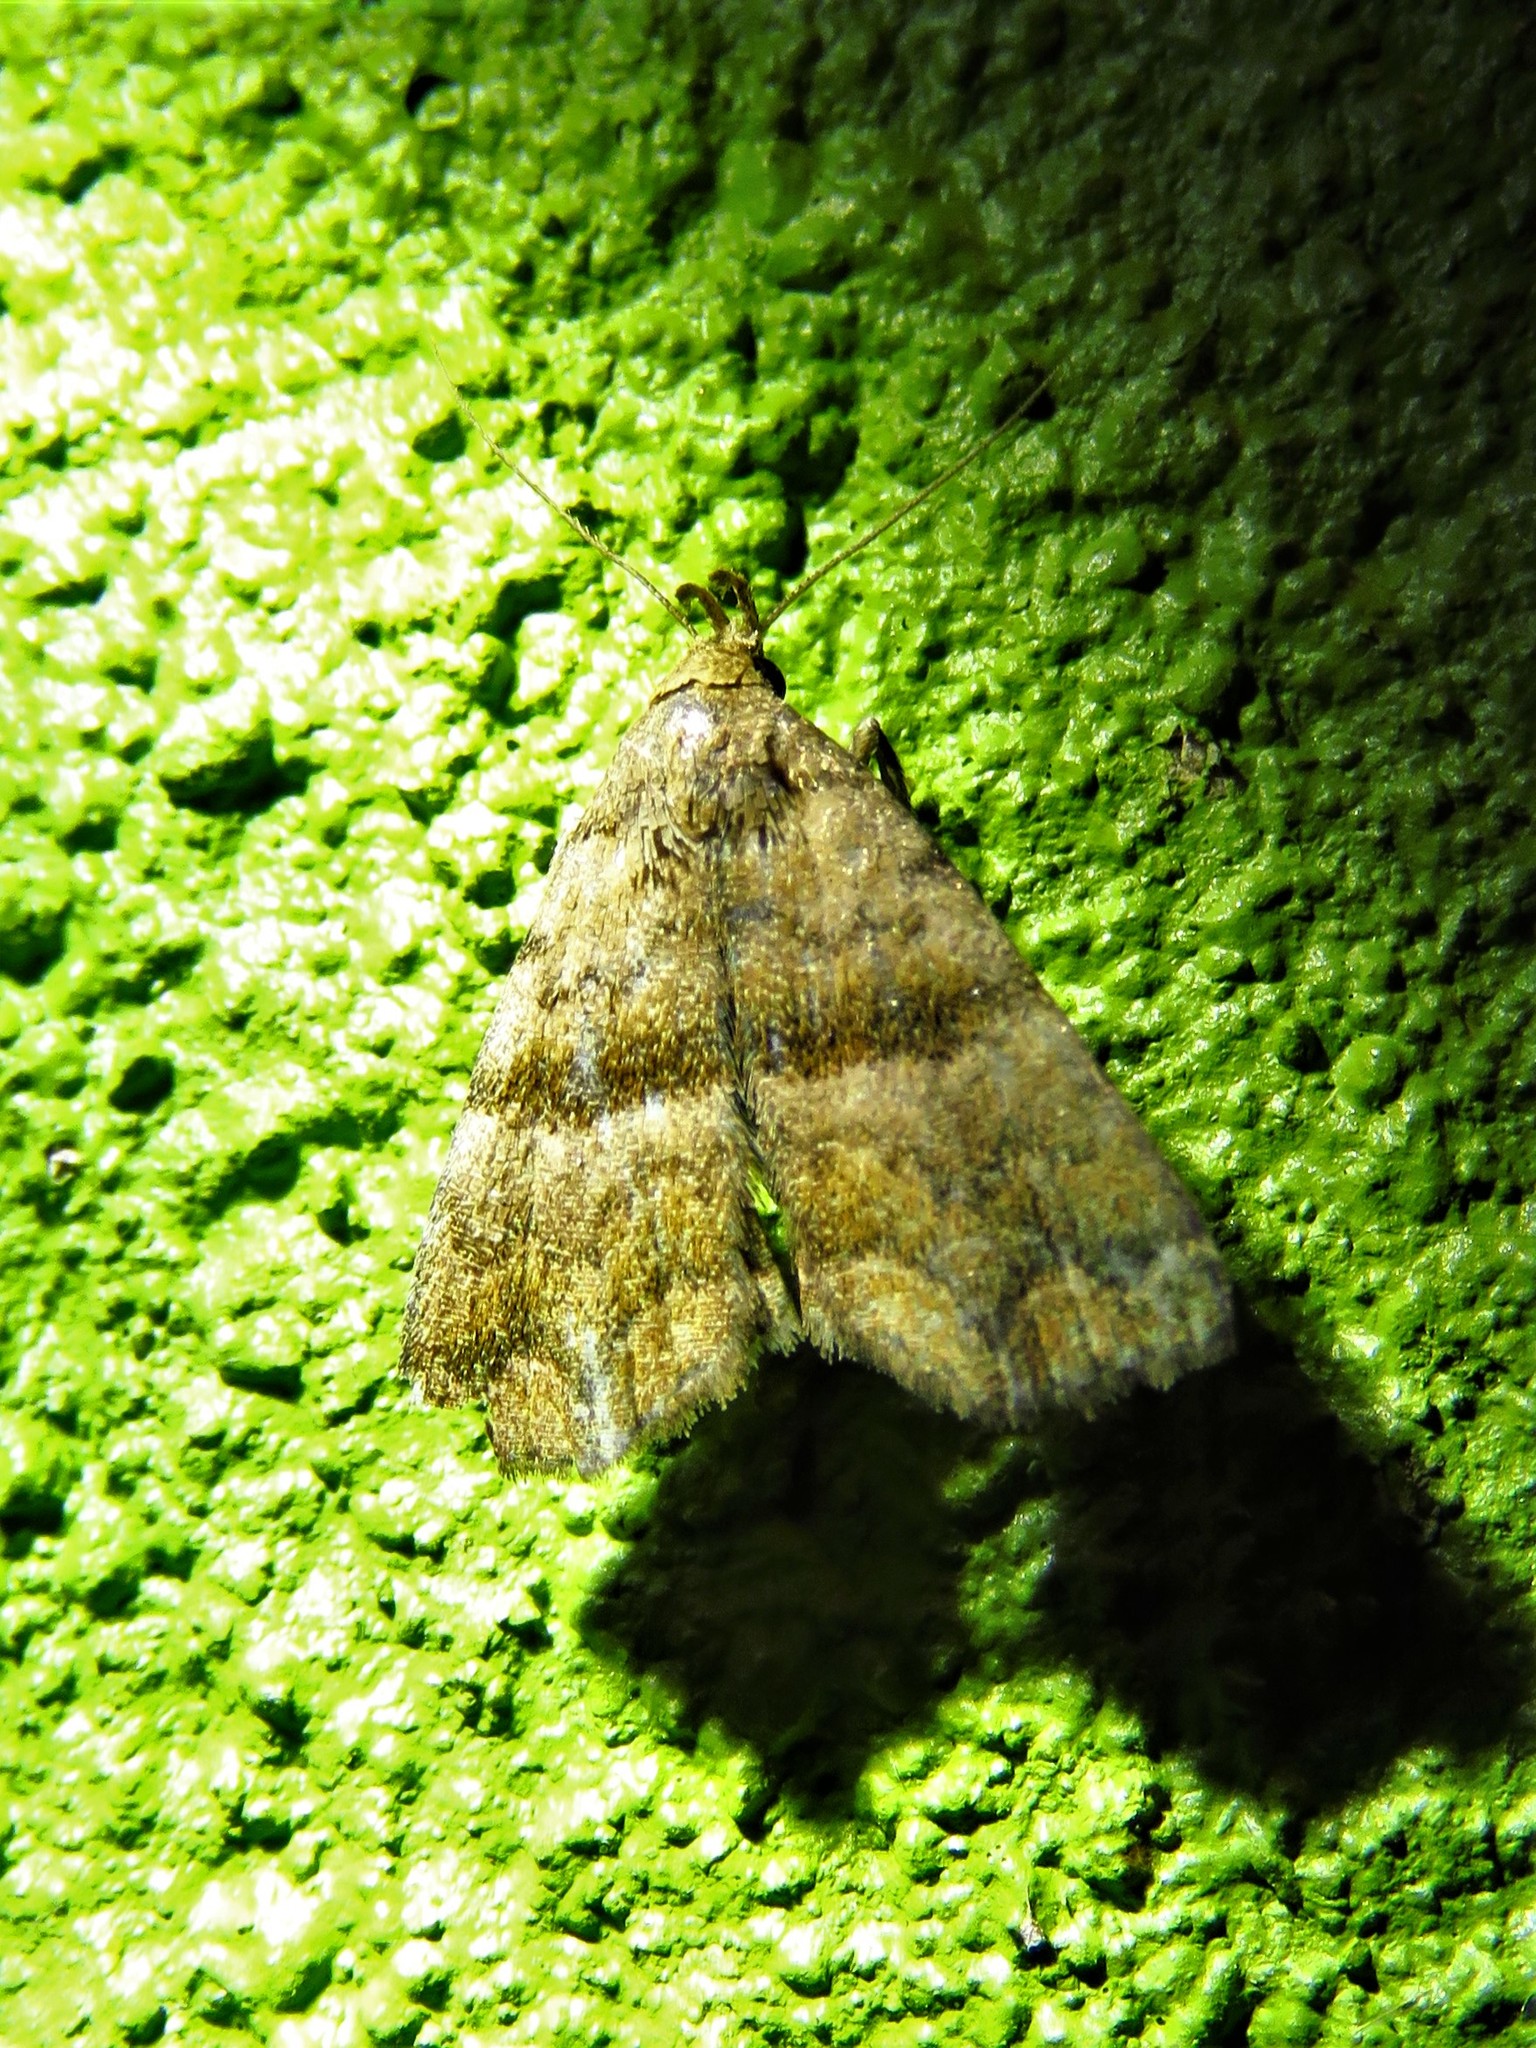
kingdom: Animalia
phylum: Arthropoda
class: Insecta
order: Lepidoptera
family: Erebidae
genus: Polypogon
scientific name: Polypogon Hipoepa fractalis
